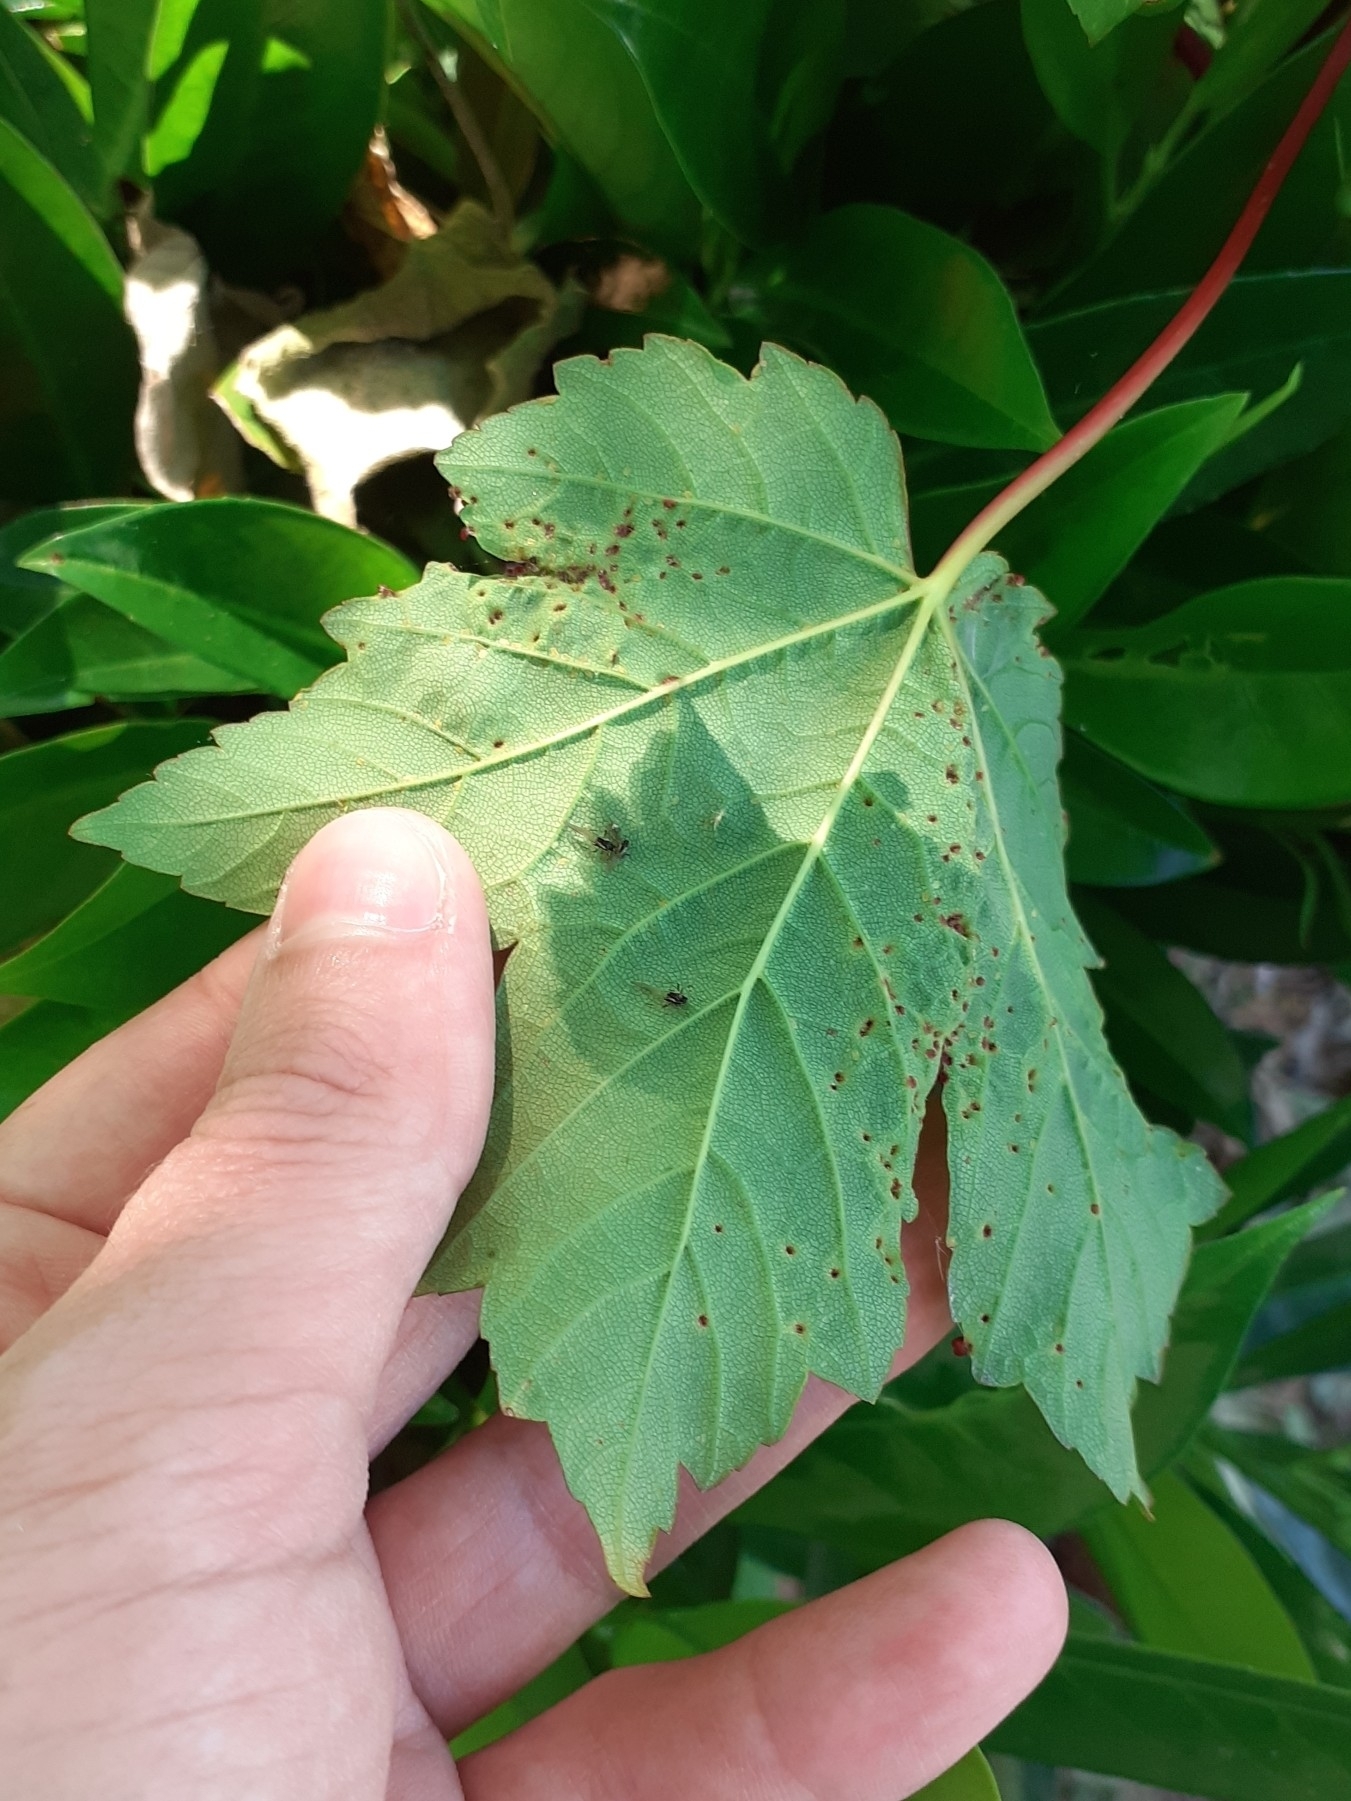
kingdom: Animalia
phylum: Arthropoda
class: Arachnida
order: Trombidiformes
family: Eriophyidae
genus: Aceria
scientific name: Aceria cephaloneus
